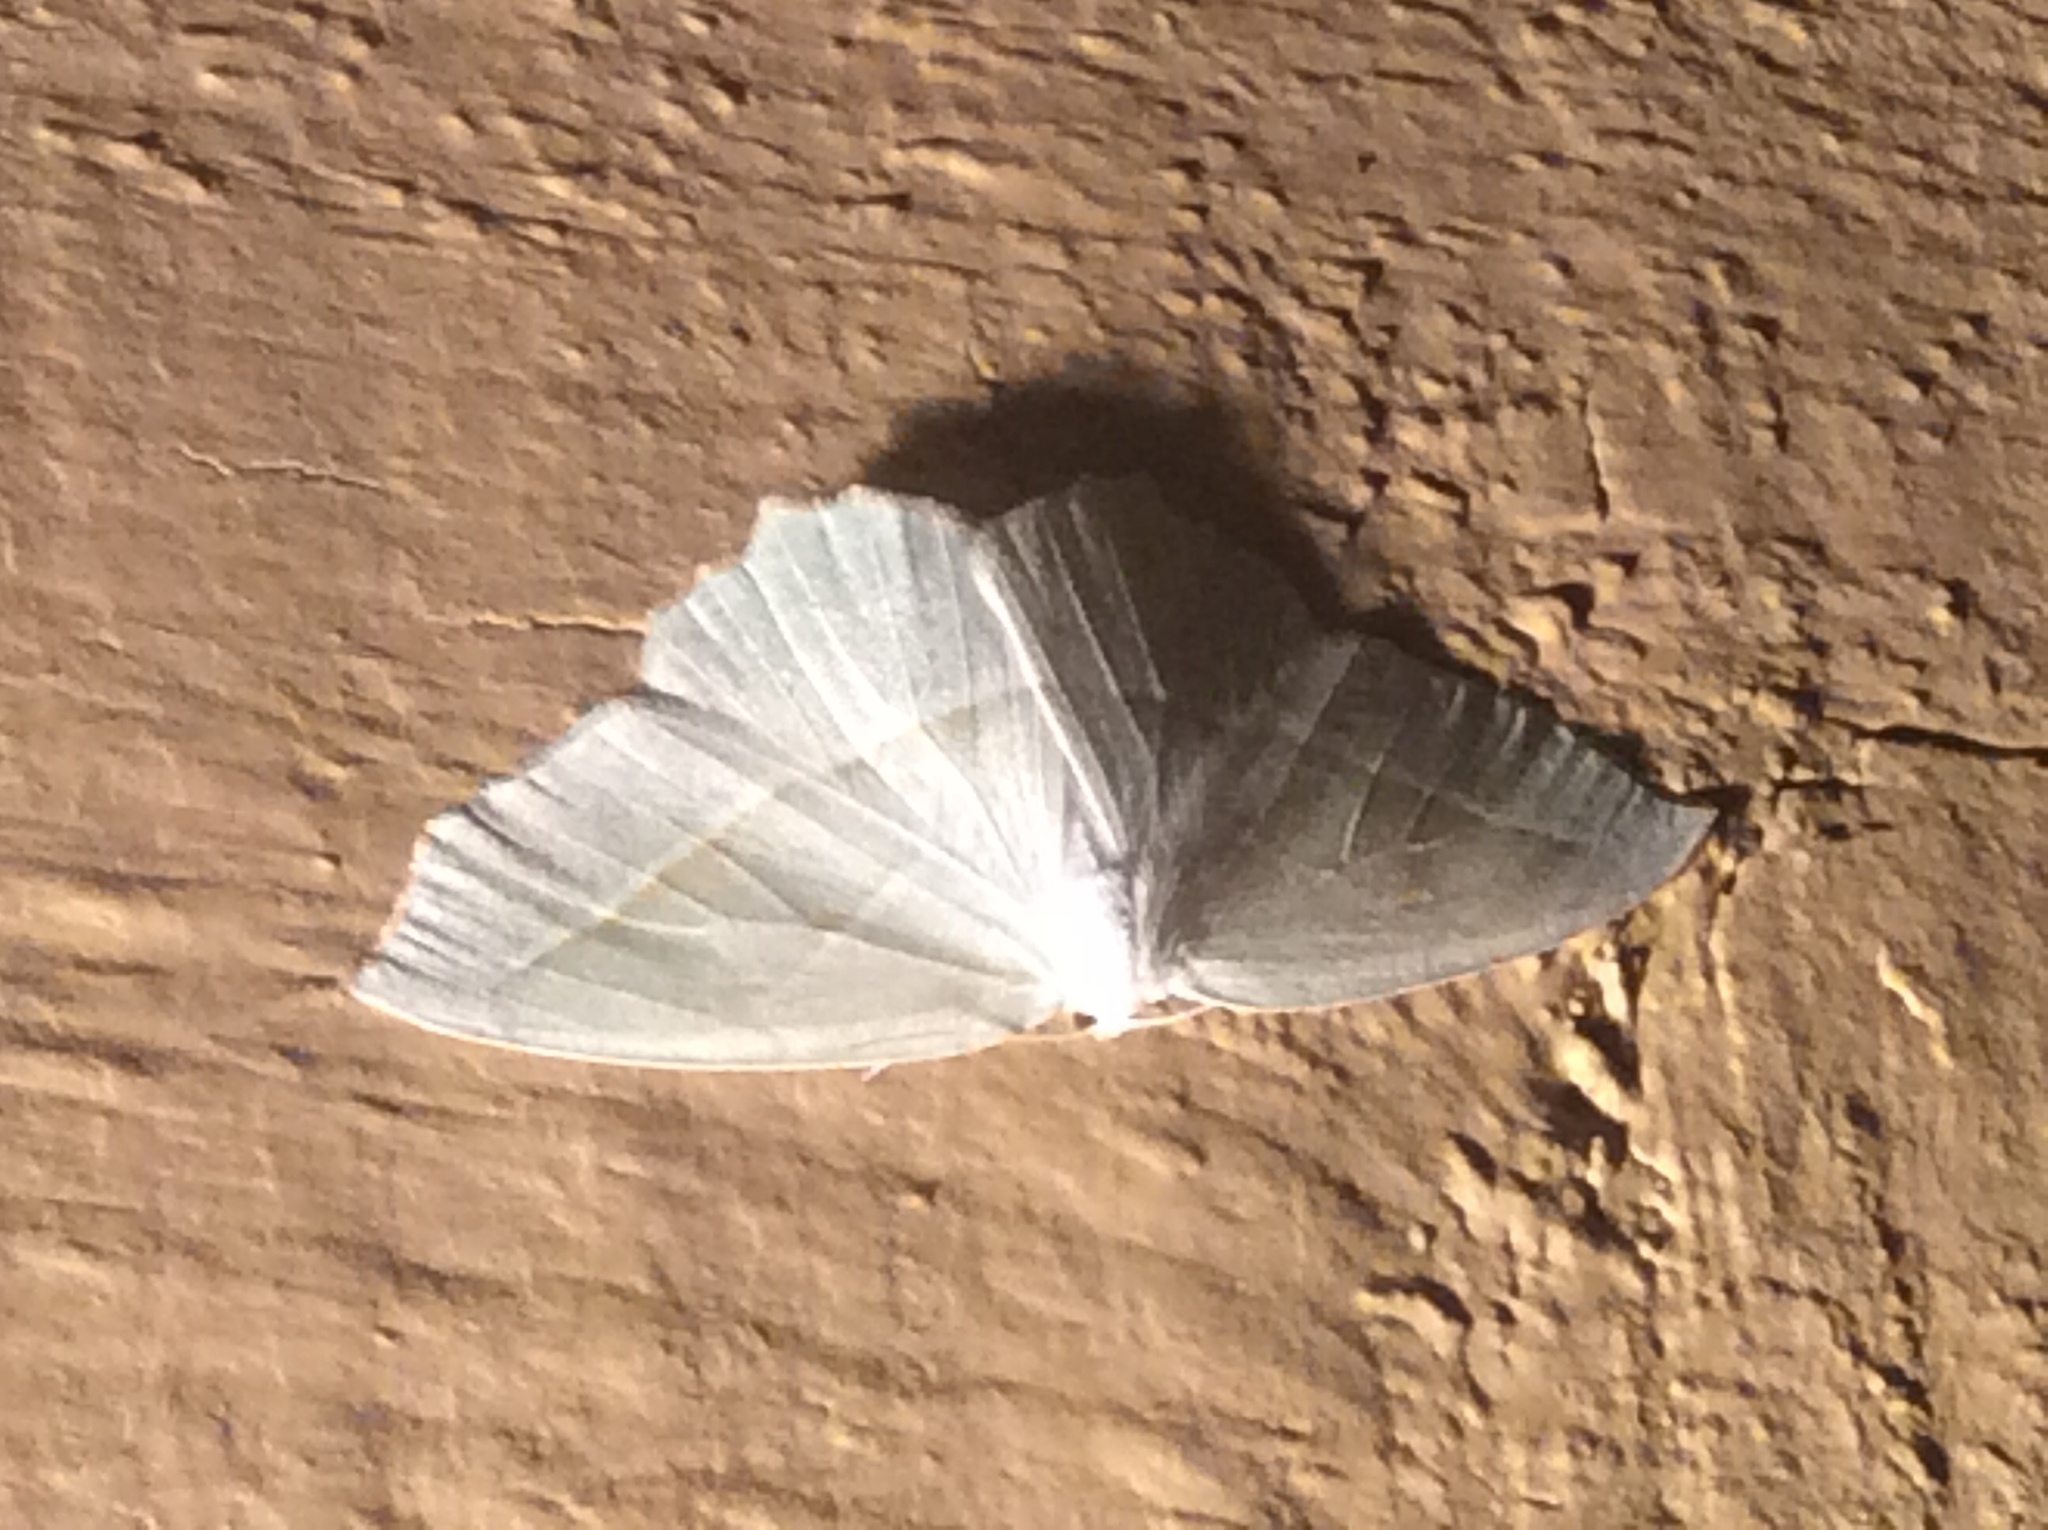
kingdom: Animalia
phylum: Arthropoda
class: Insecta
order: Lepidoptera
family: Geometridae
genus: Campaea
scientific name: Campaea perlata
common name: Fringed looper
